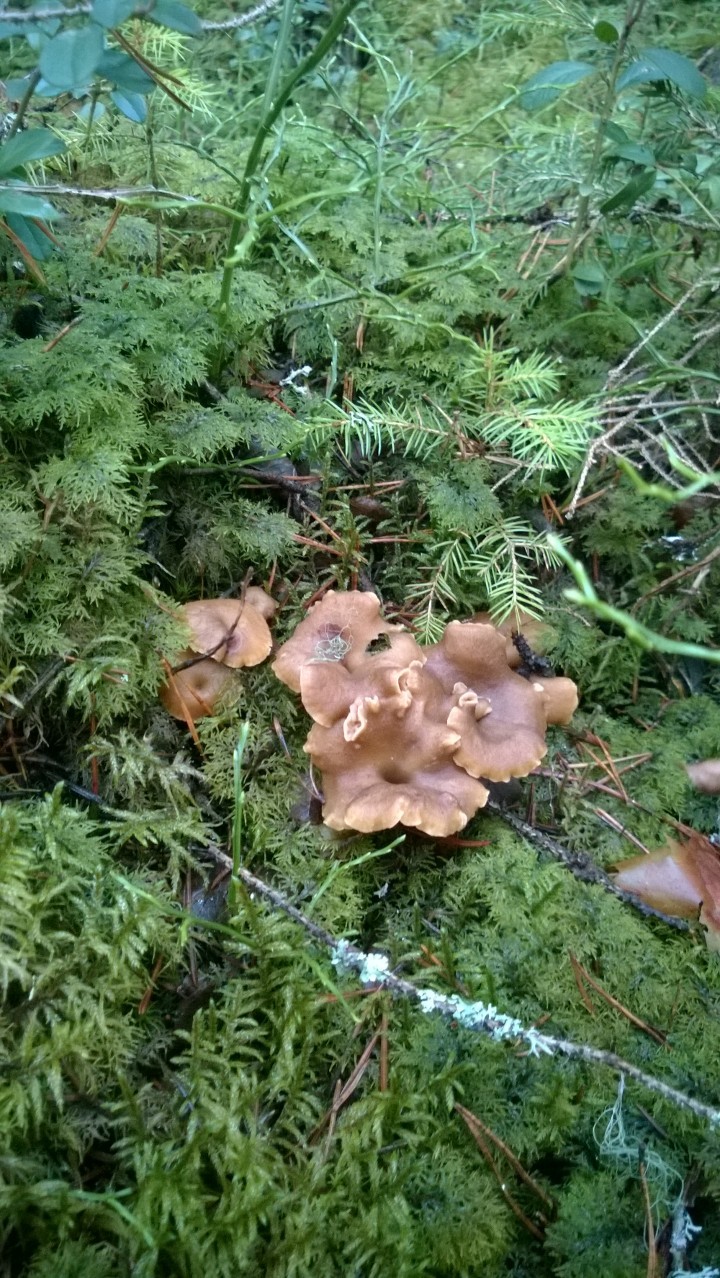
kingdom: Fungi
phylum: Basidiomycota
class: Agaricomycetes
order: Cantharellales
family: Hydnaceae
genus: Craterellus
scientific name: Craterellus tubaeformis
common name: Yellowfoot
